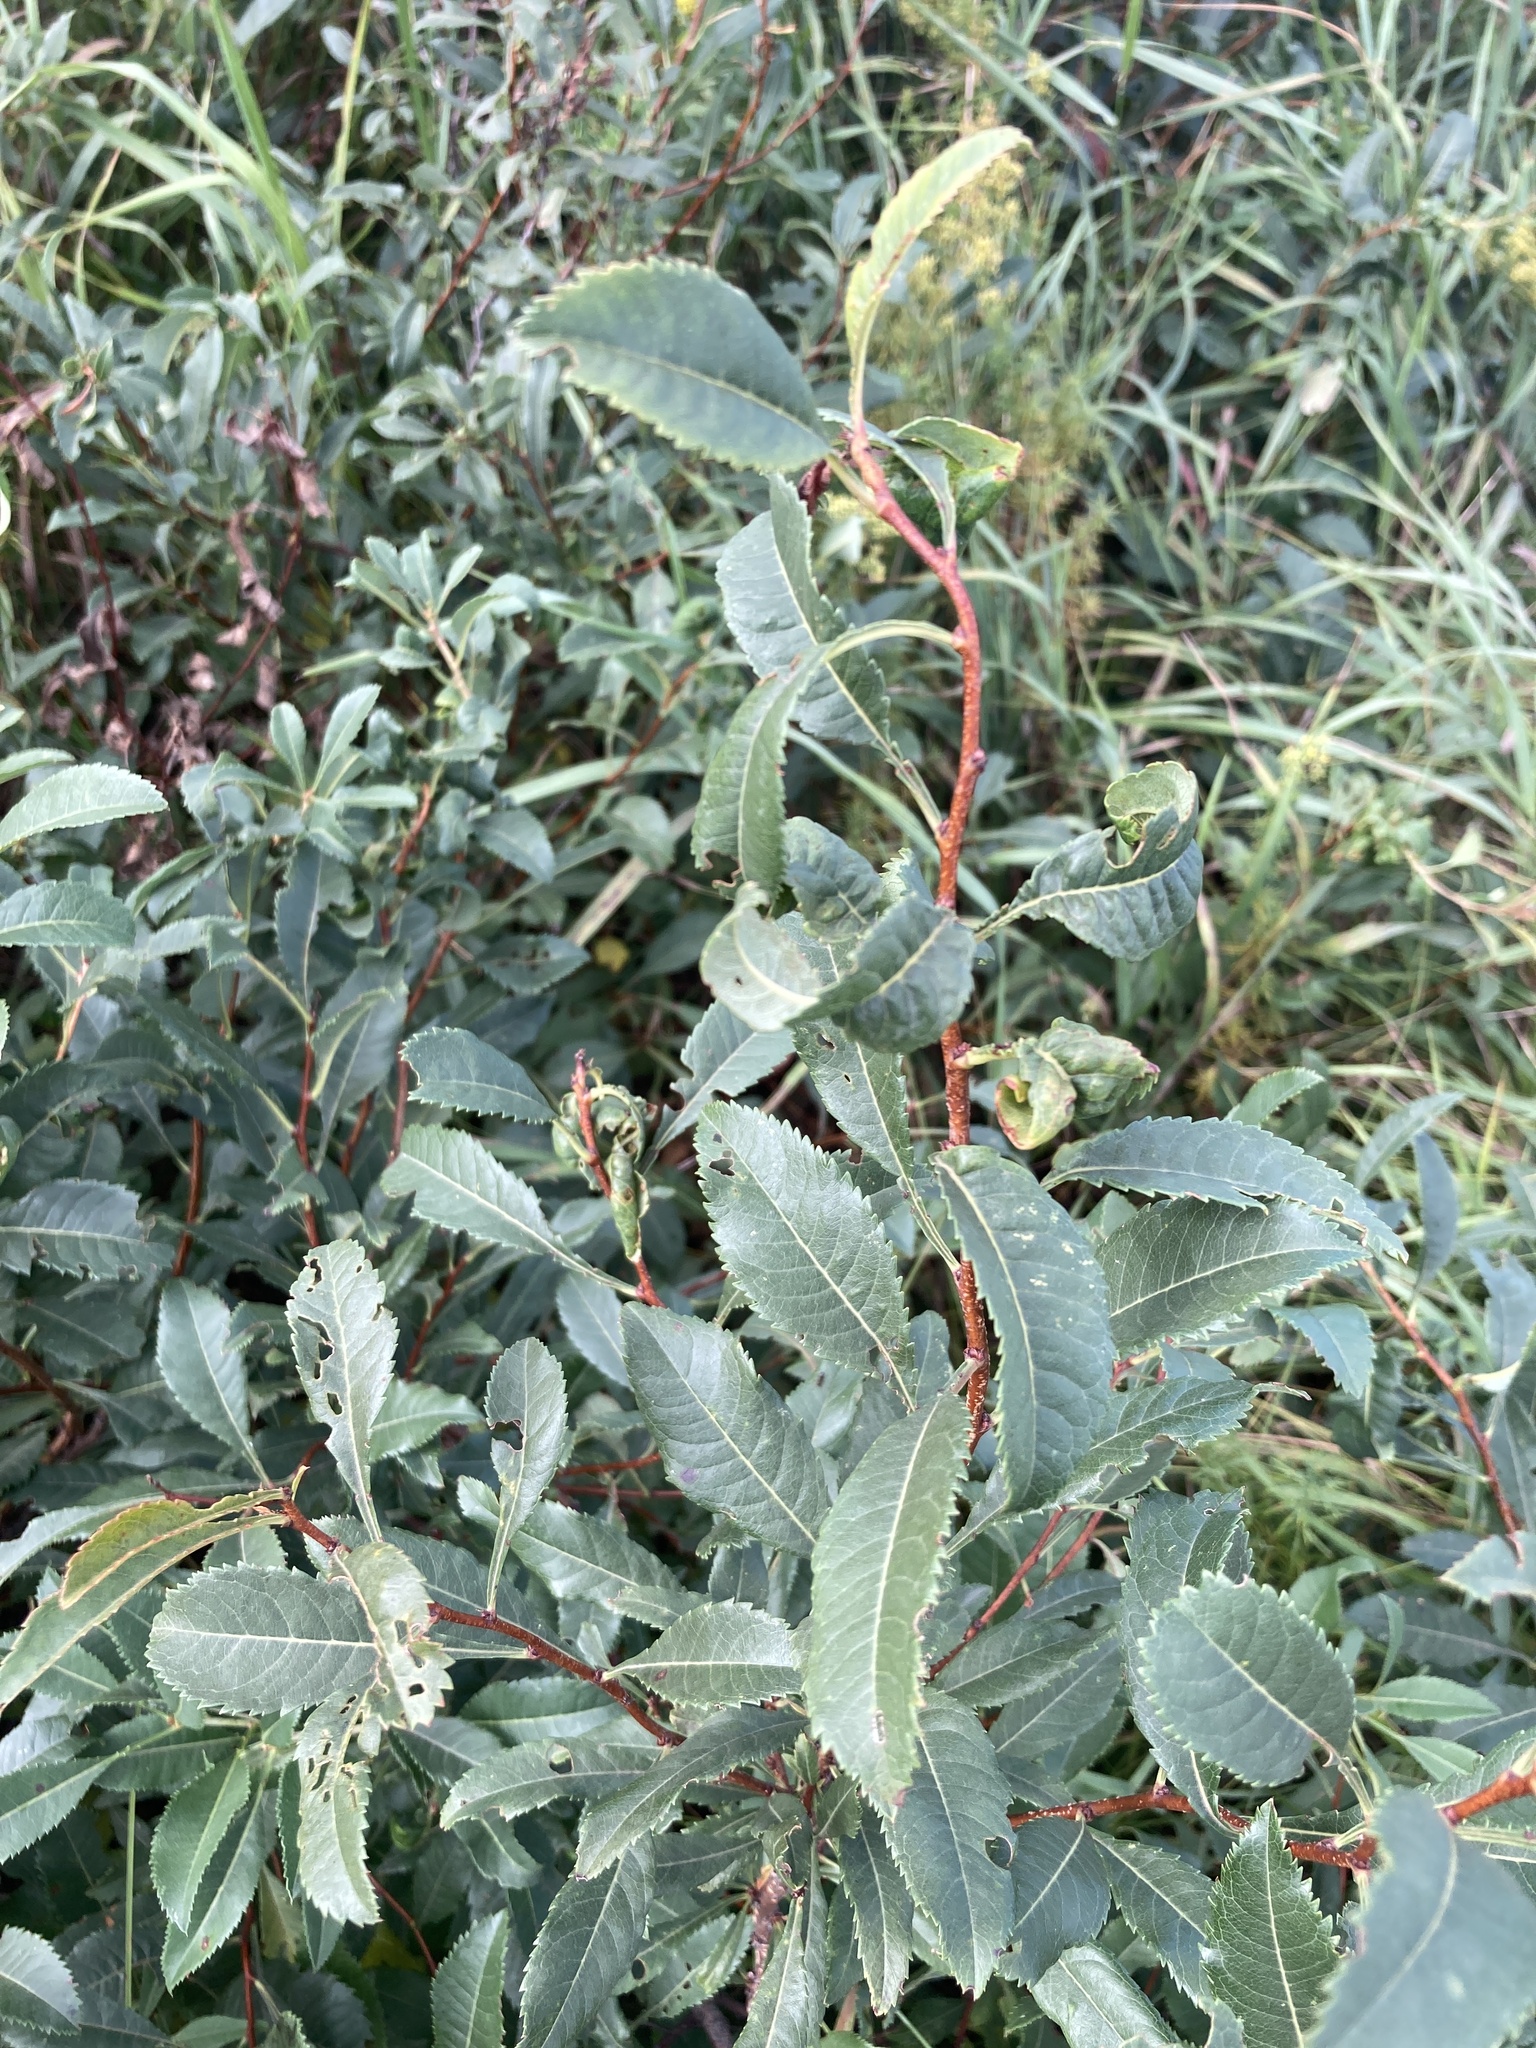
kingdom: Plantae
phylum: Tracheophyta
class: Magnoliopsida
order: Rosales
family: Rosaceae
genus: Prunus
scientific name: Prunus tenella
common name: Dwarf russian almond
